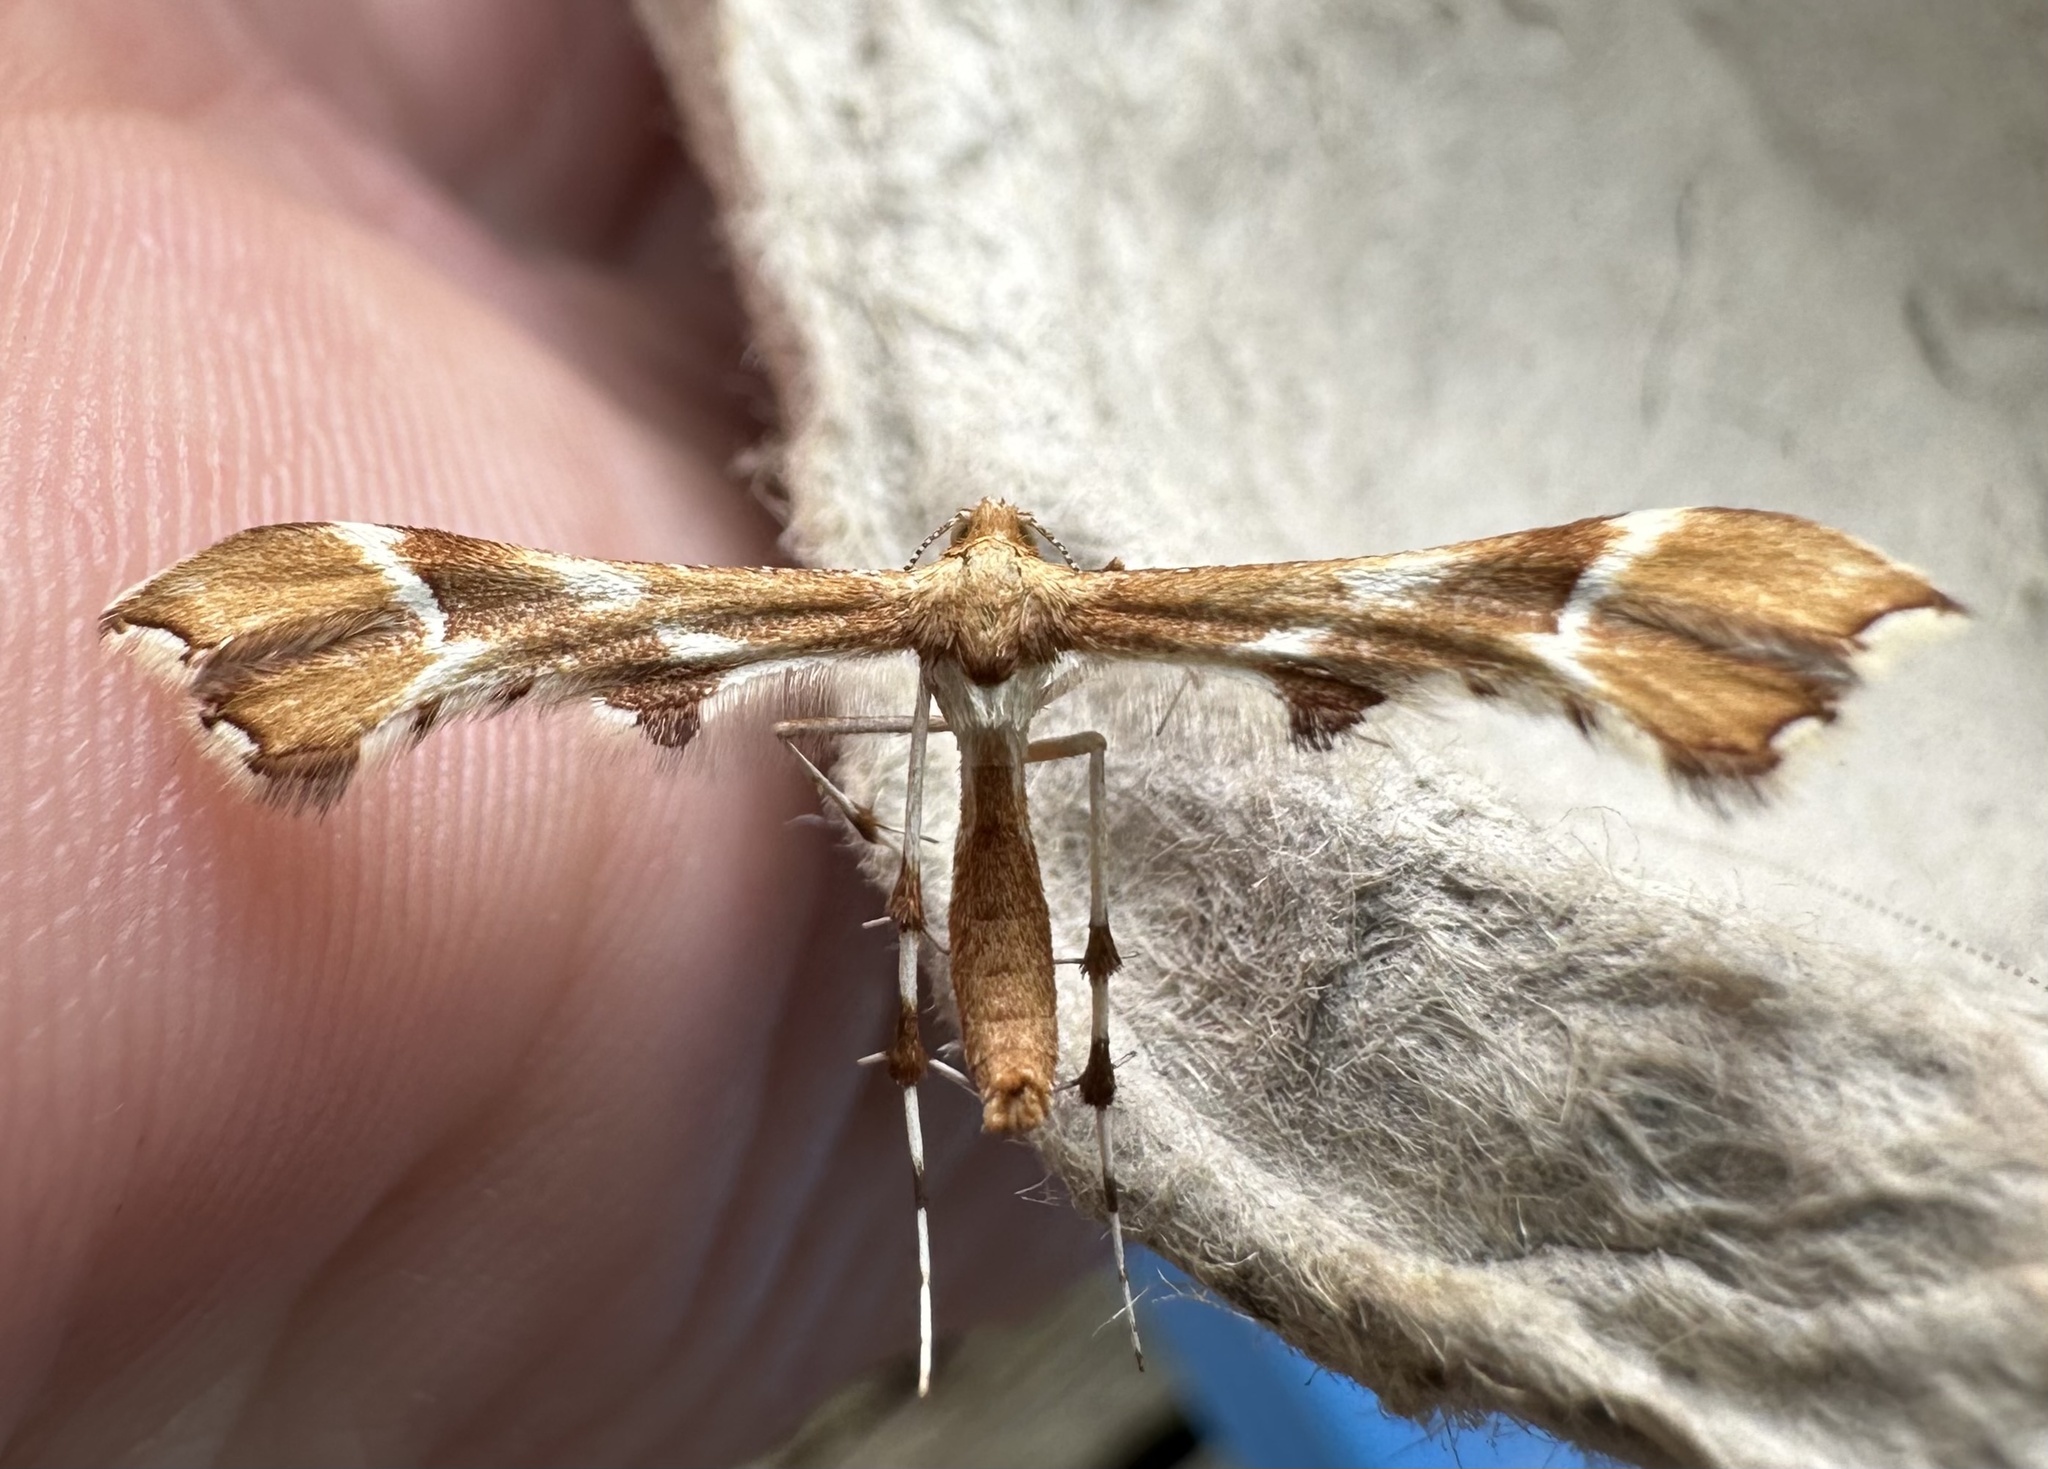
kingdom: Animalia
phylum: Arthropoda
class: Insecta
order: Lepidoptera
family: Pterophoridae
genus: Cnaemidophorus
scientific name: Cnaemidophorus rhododactyla
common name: Rose plume
